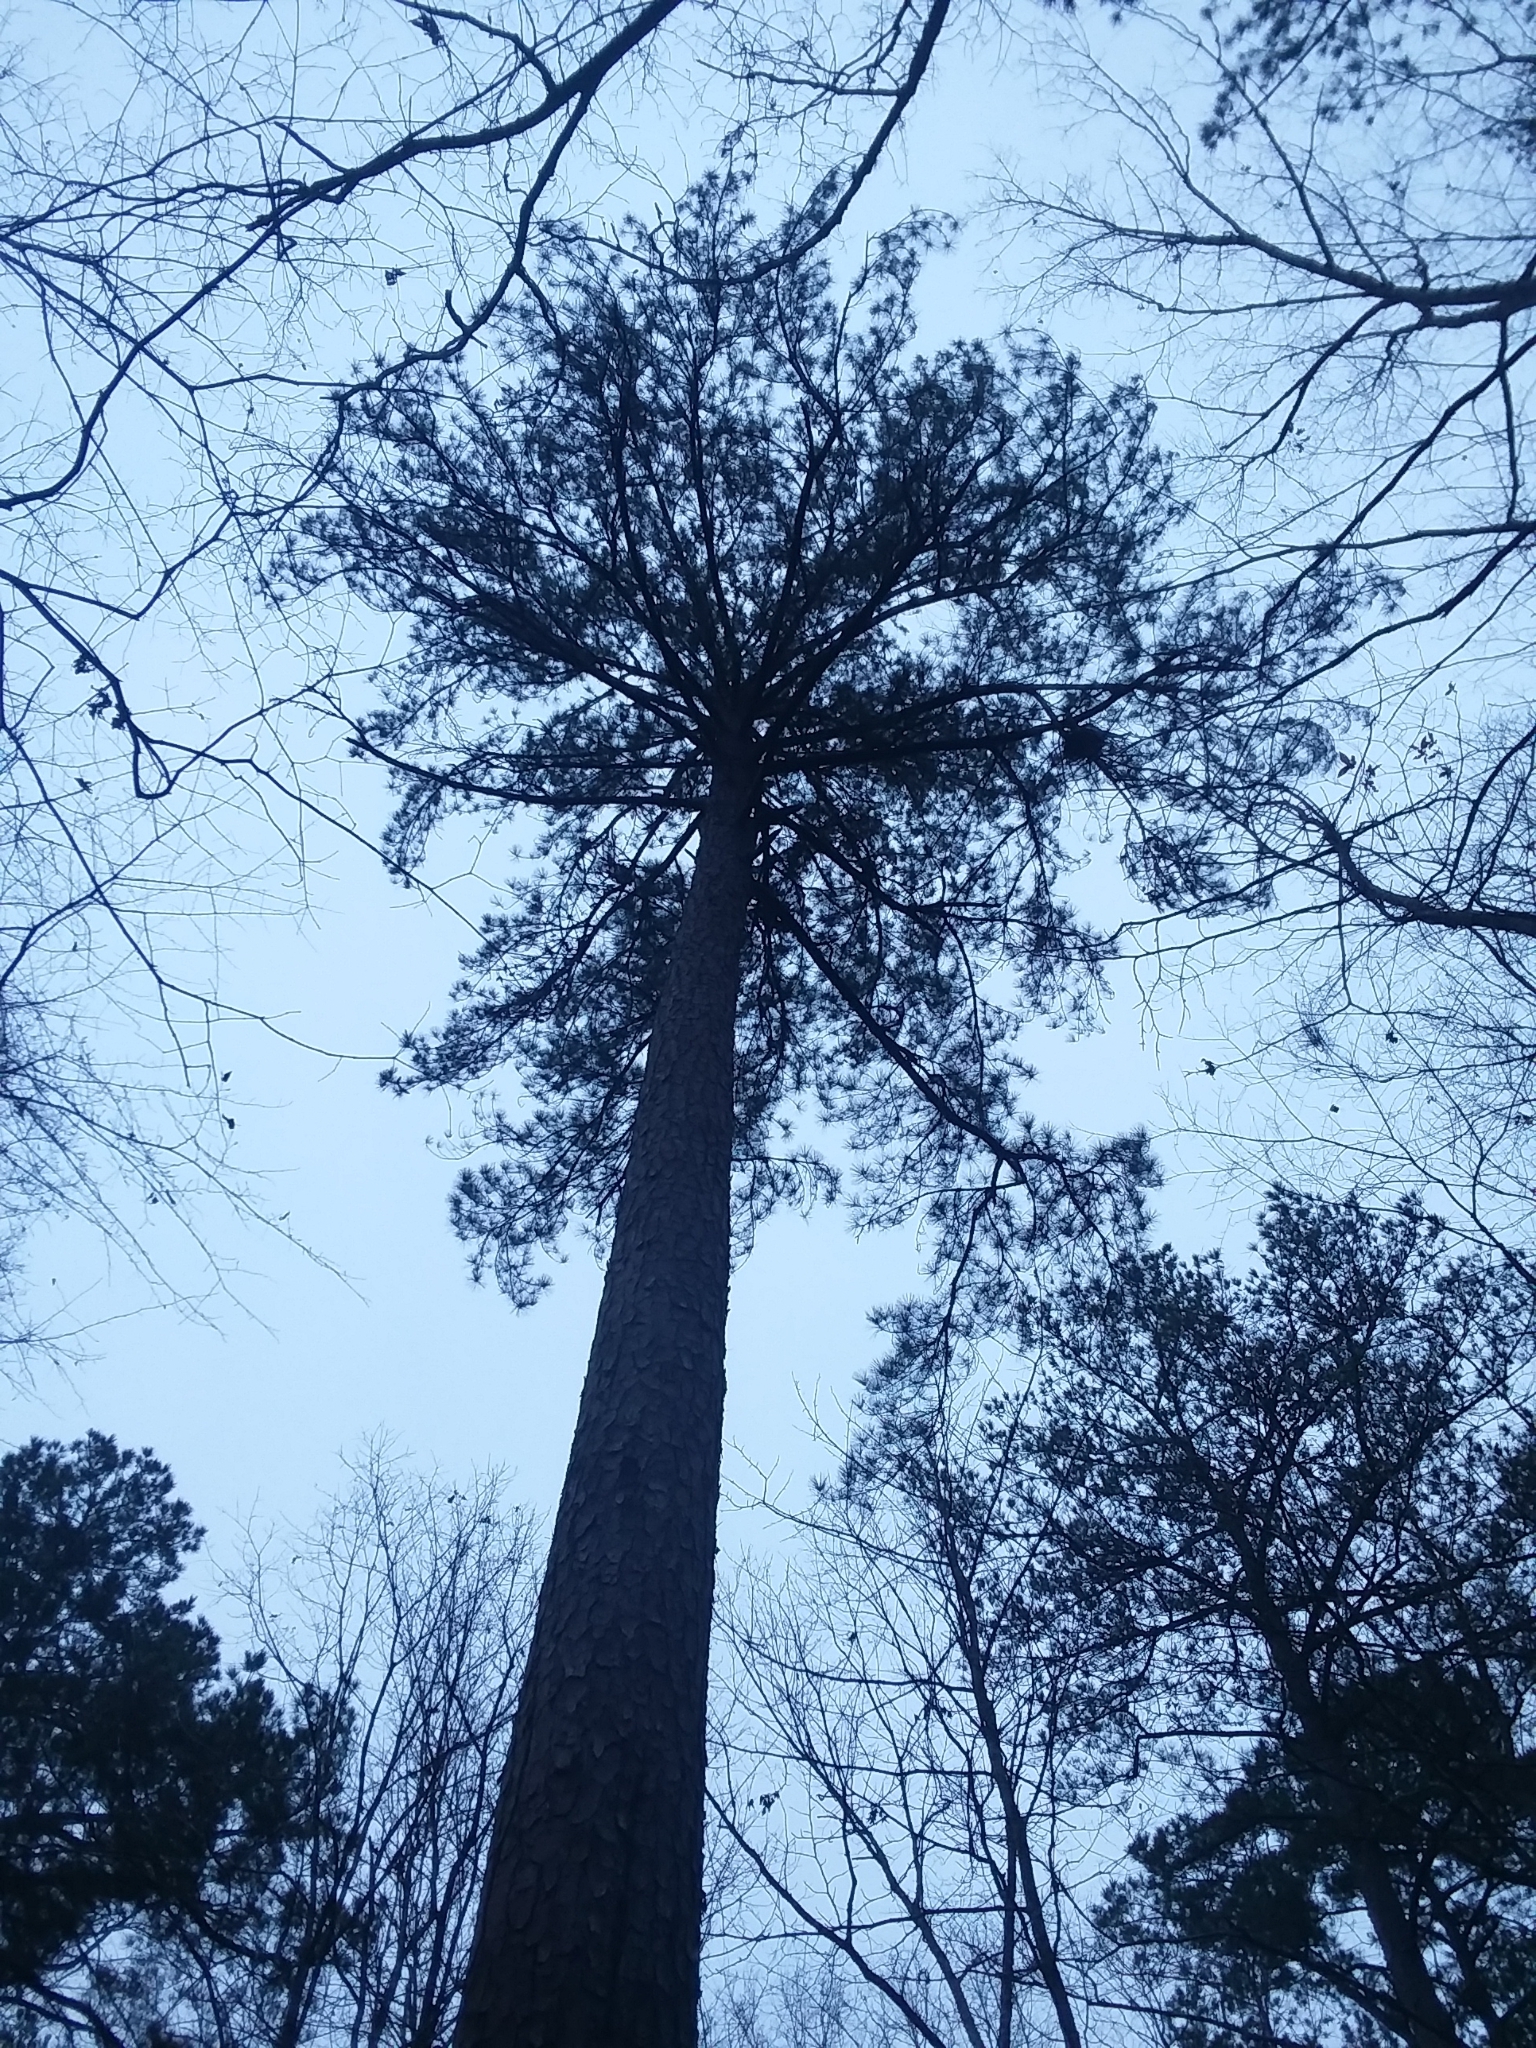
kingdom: Plantae
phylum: Tracheophyta
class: Pinopsida
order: Pinales
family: Pinaceae
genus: Pinus
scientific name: Pinus taeda
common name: Loblolly pine
